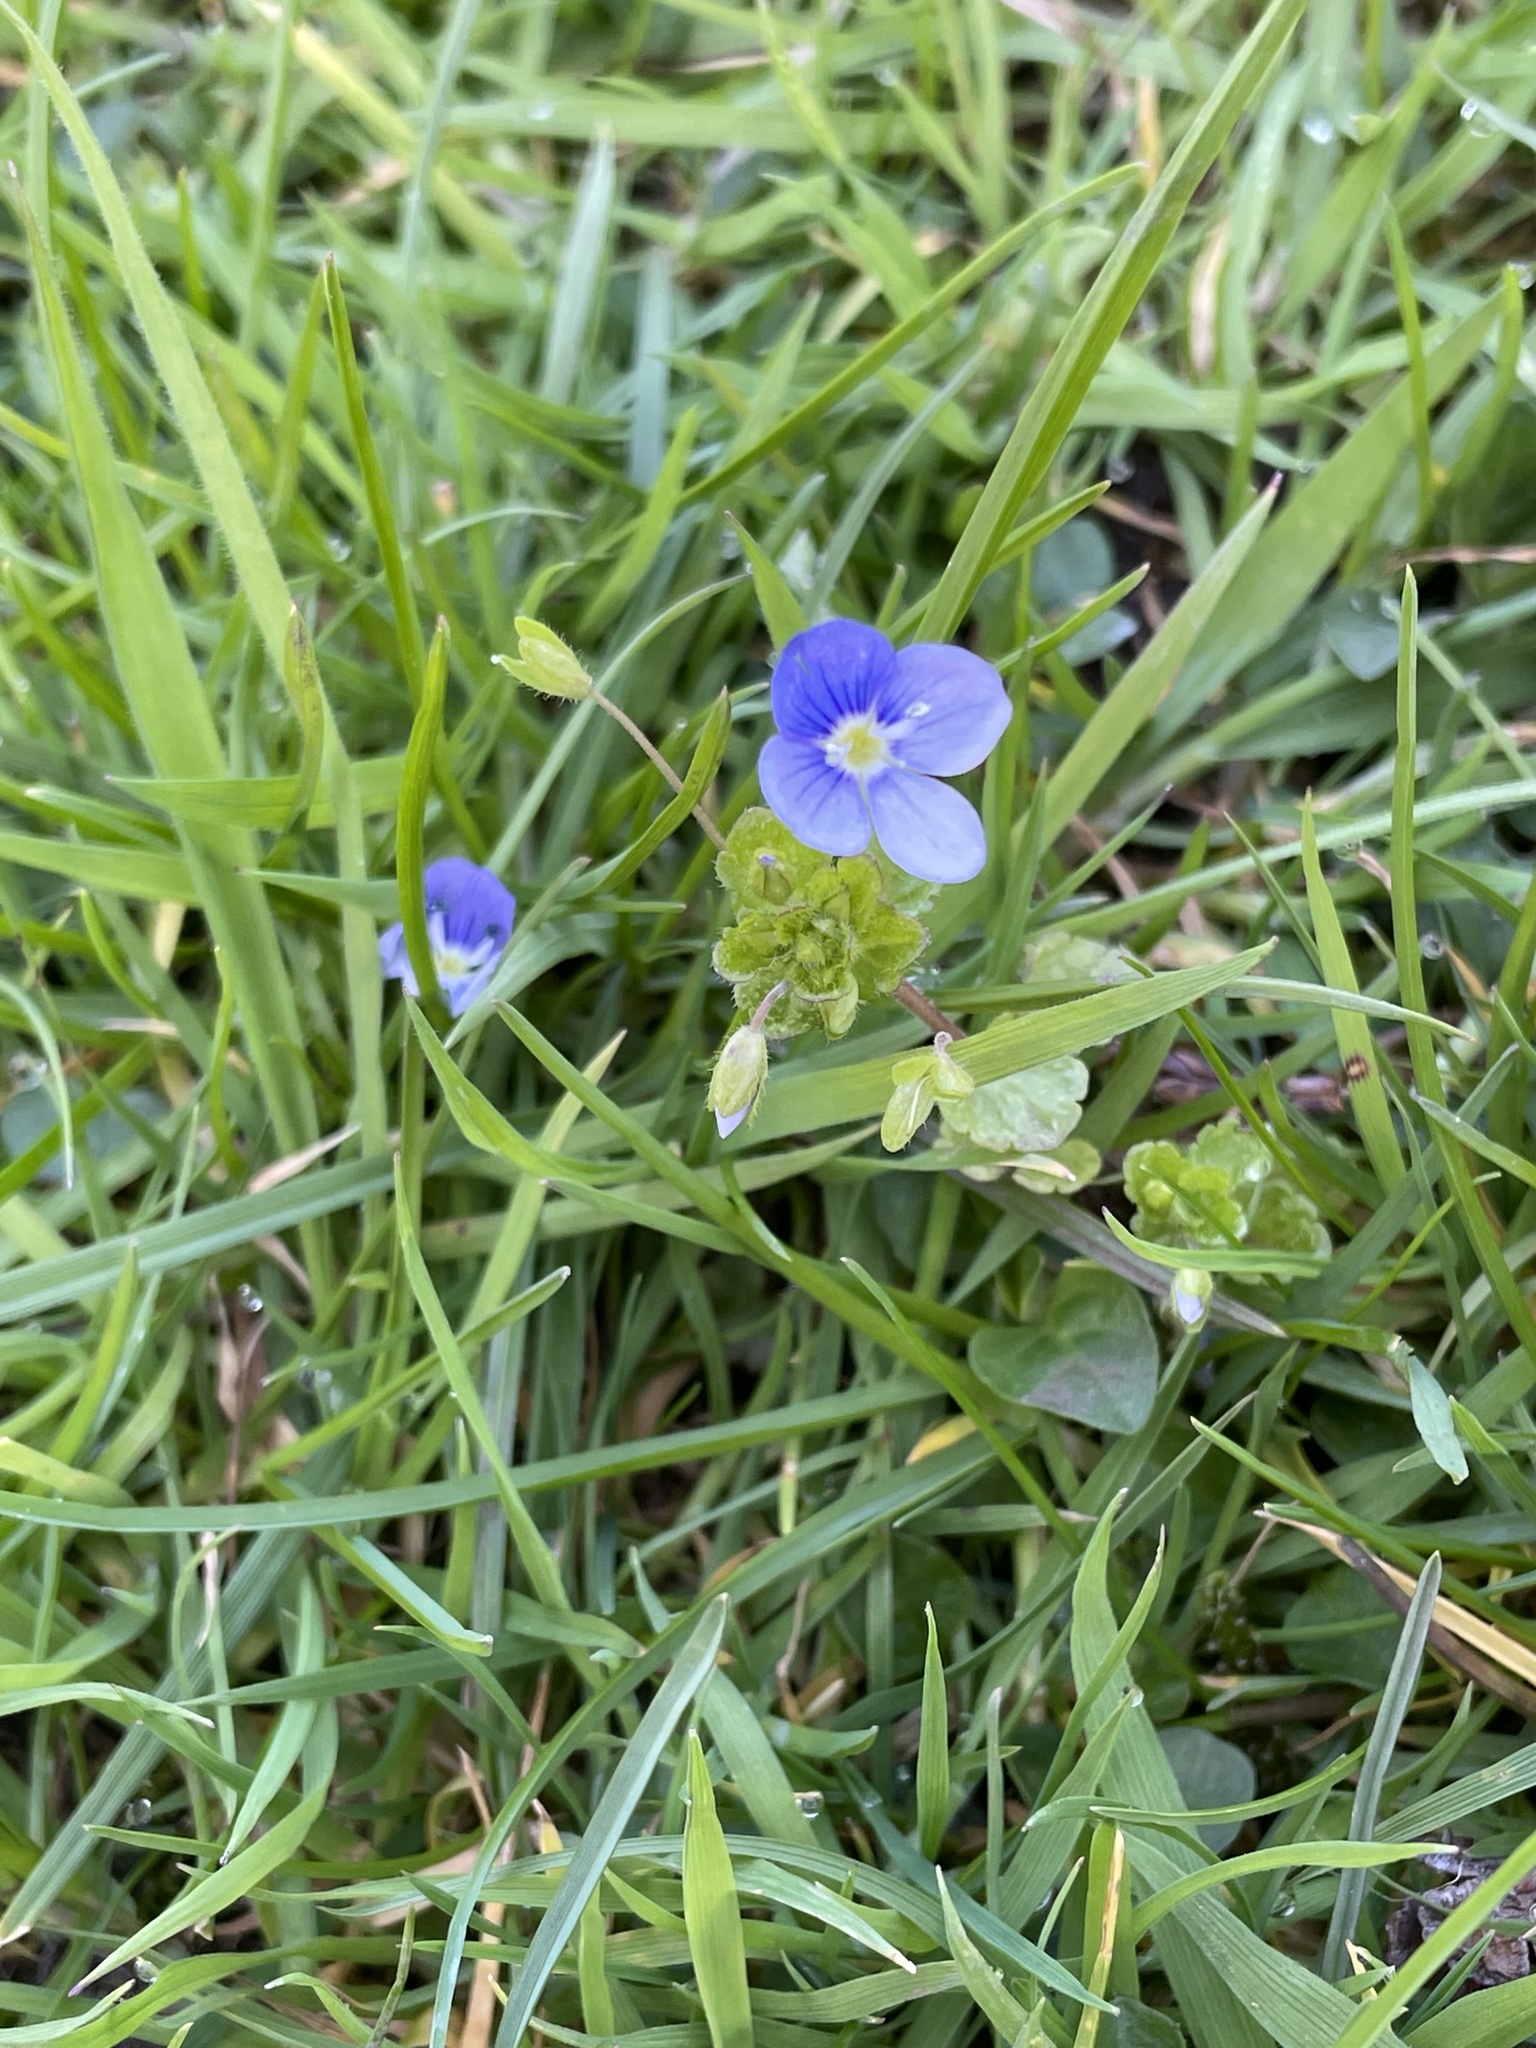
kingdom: Plantae
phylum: Tracheophyta
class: Magnoliopsida
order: Lamiales
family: Plantaginaceae
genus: Veronica
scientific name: Veronica filiformis
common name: Slender speedwell
